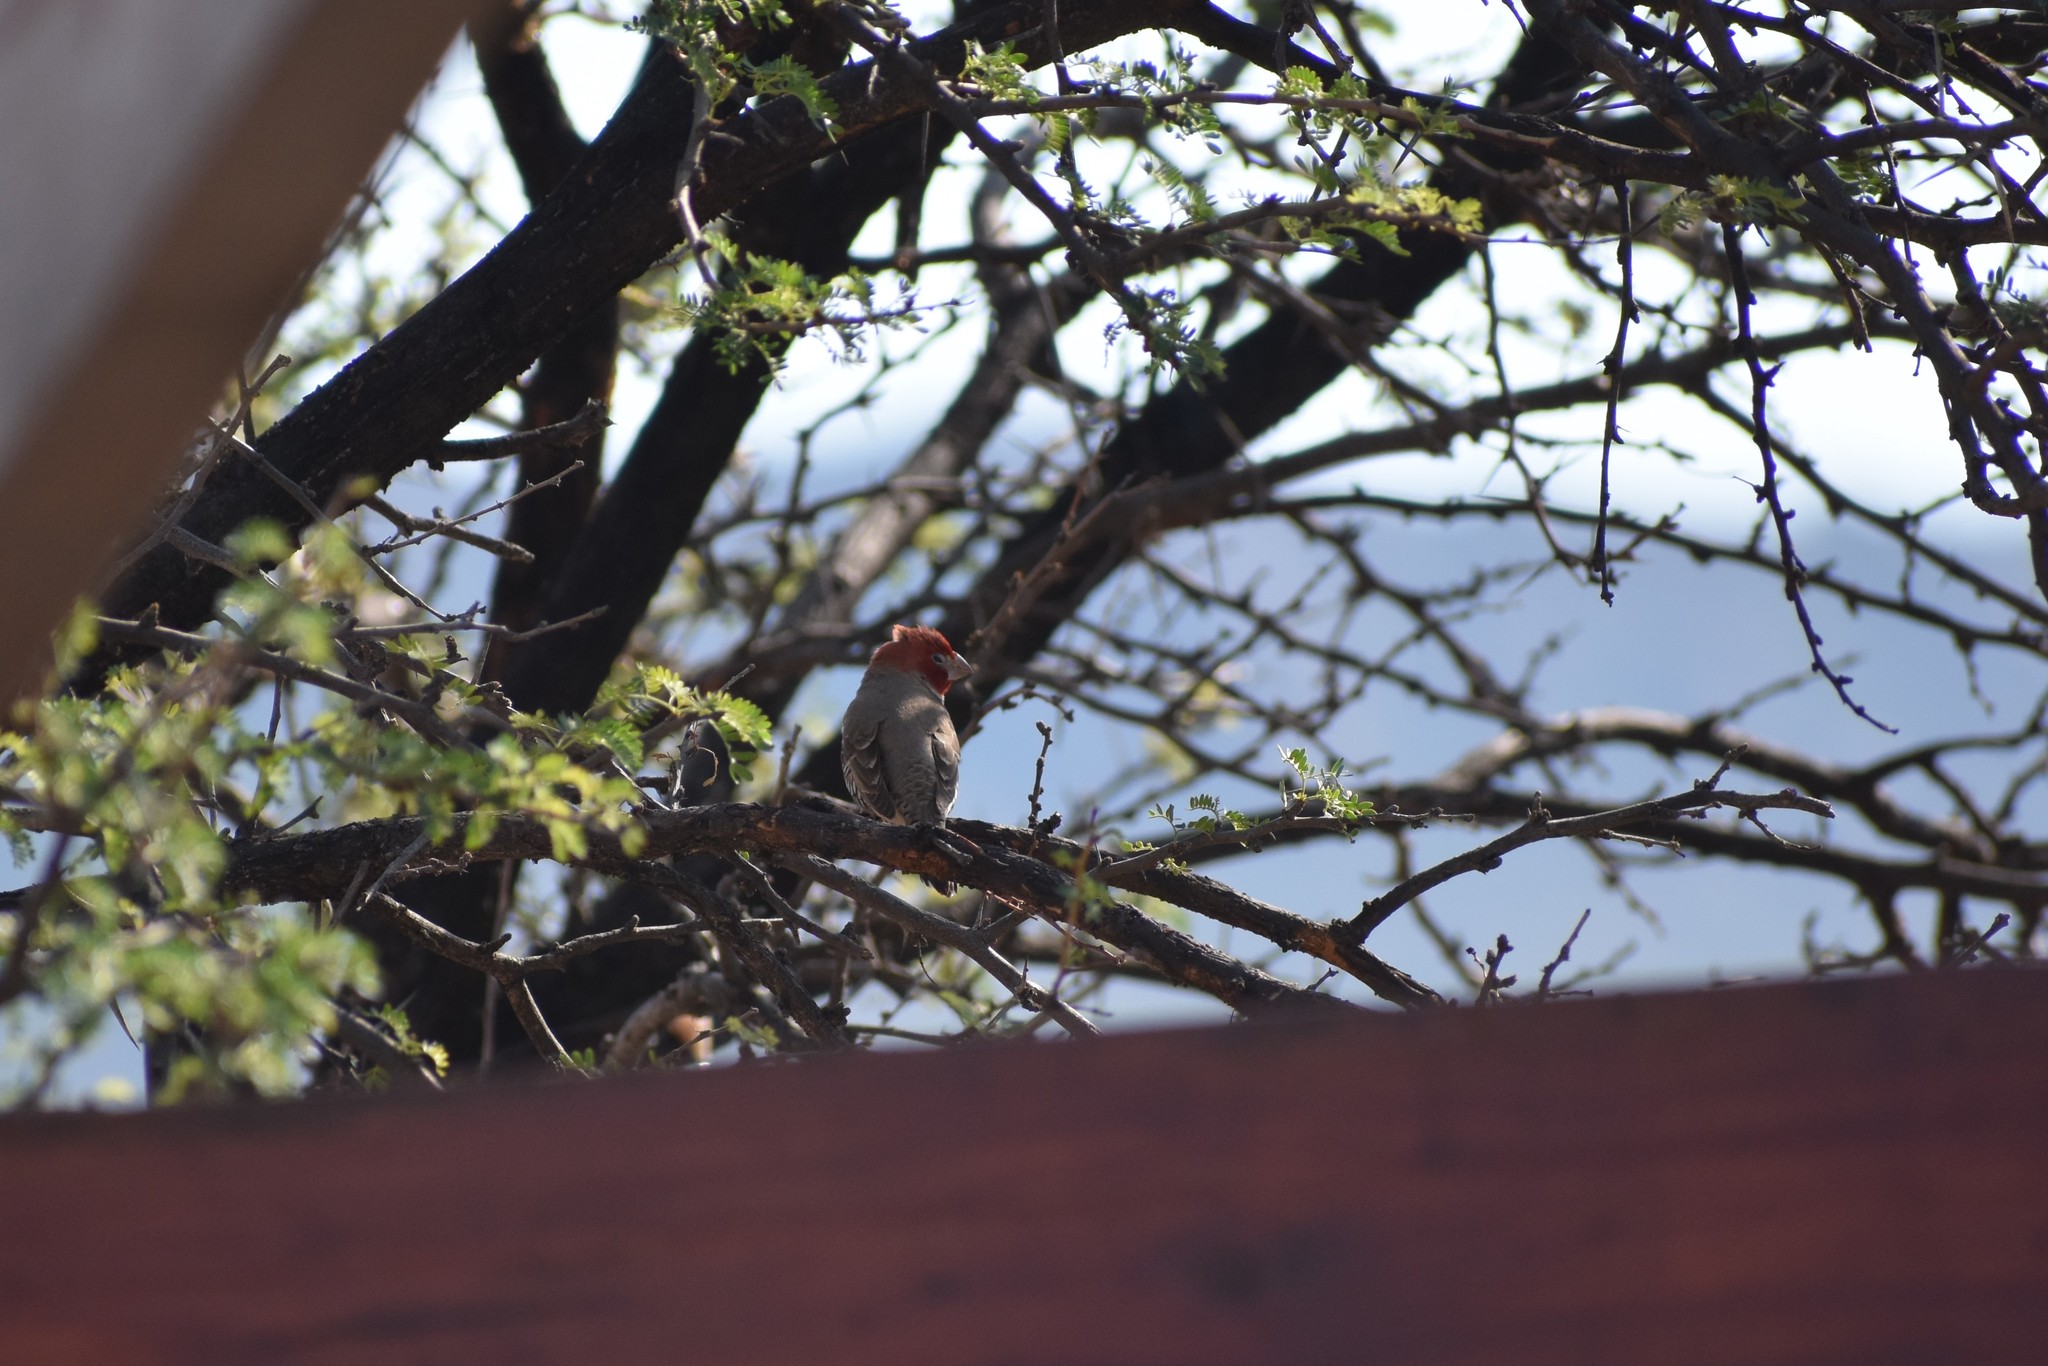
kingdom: Animalia
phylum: Chordata
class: Aves
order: Passeriformes
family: Estrildidae
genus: Amadina
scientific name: Amadina erythrocephala
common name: Red-headed finch
